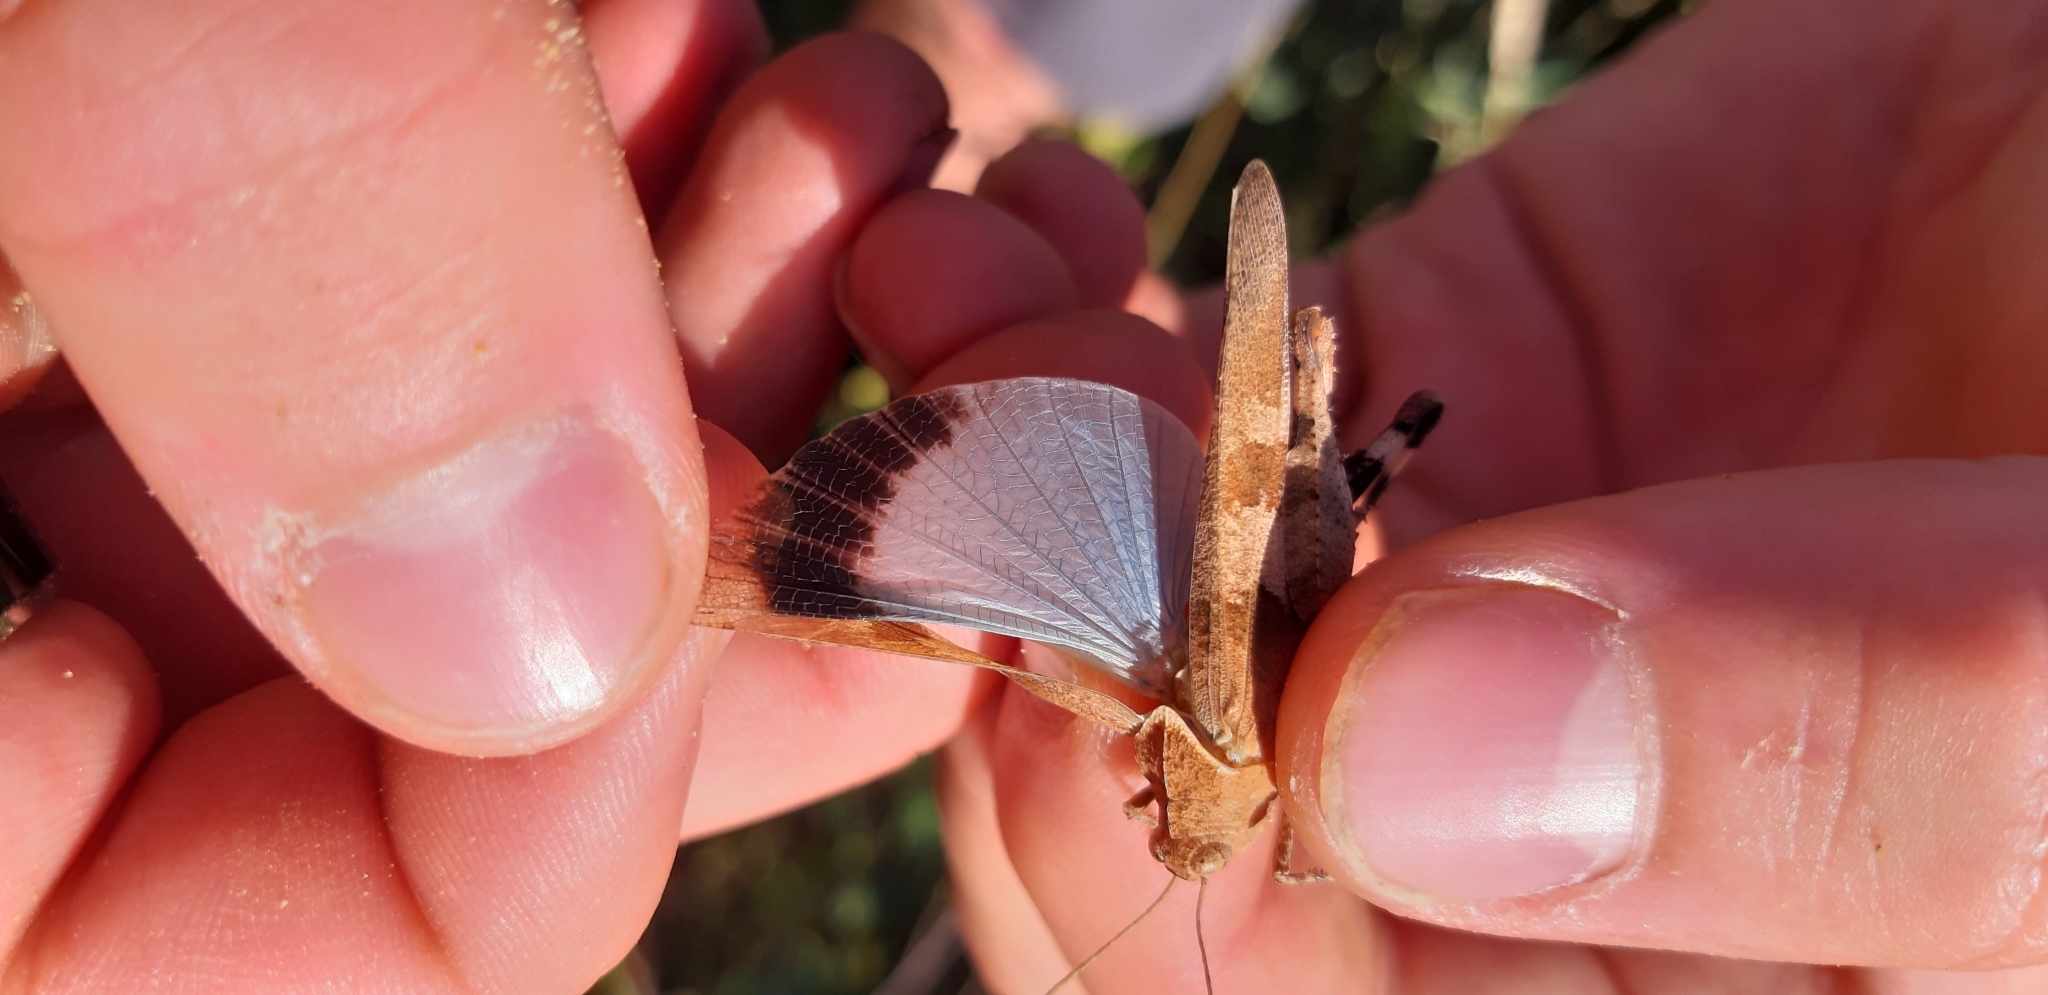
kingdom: Animalia
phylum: Arthropoda
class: Insecta
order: Orthoptera
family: Acrididae
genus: Oedipoda
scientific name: Oedipoda caerulescens
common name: Blue-winged grasshopper
